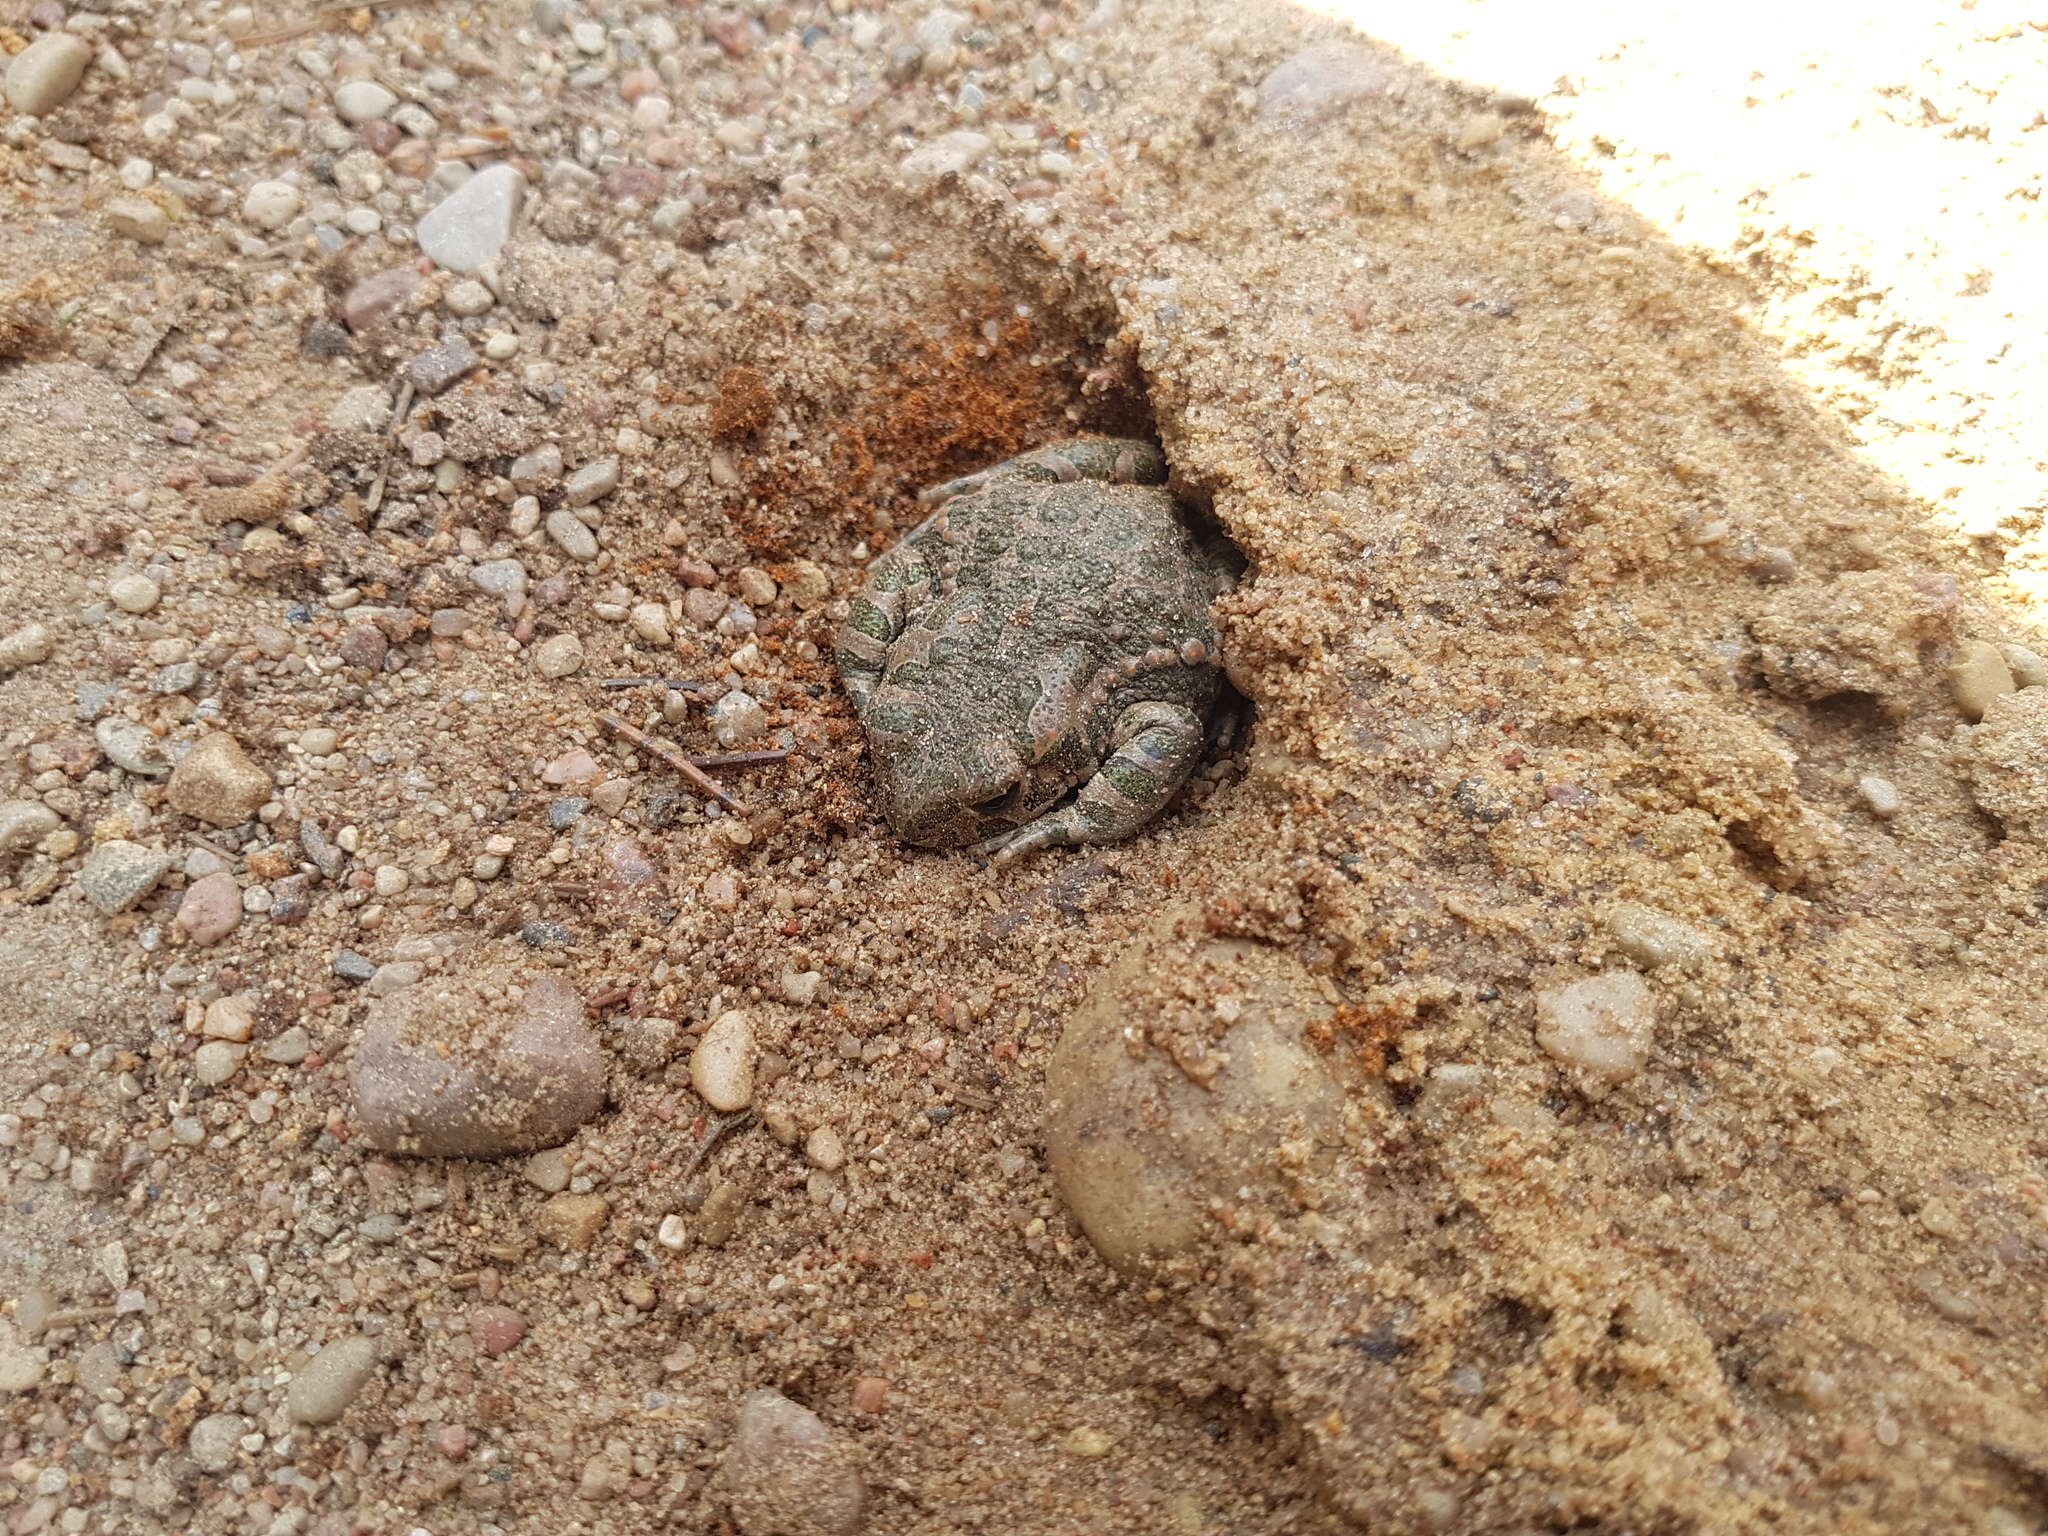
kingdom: Animalia
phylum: Chordata
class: Amphibia
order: Anura
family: Bufonidae
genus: Bufotes
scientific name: Bufotes viridis
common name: European green toad
